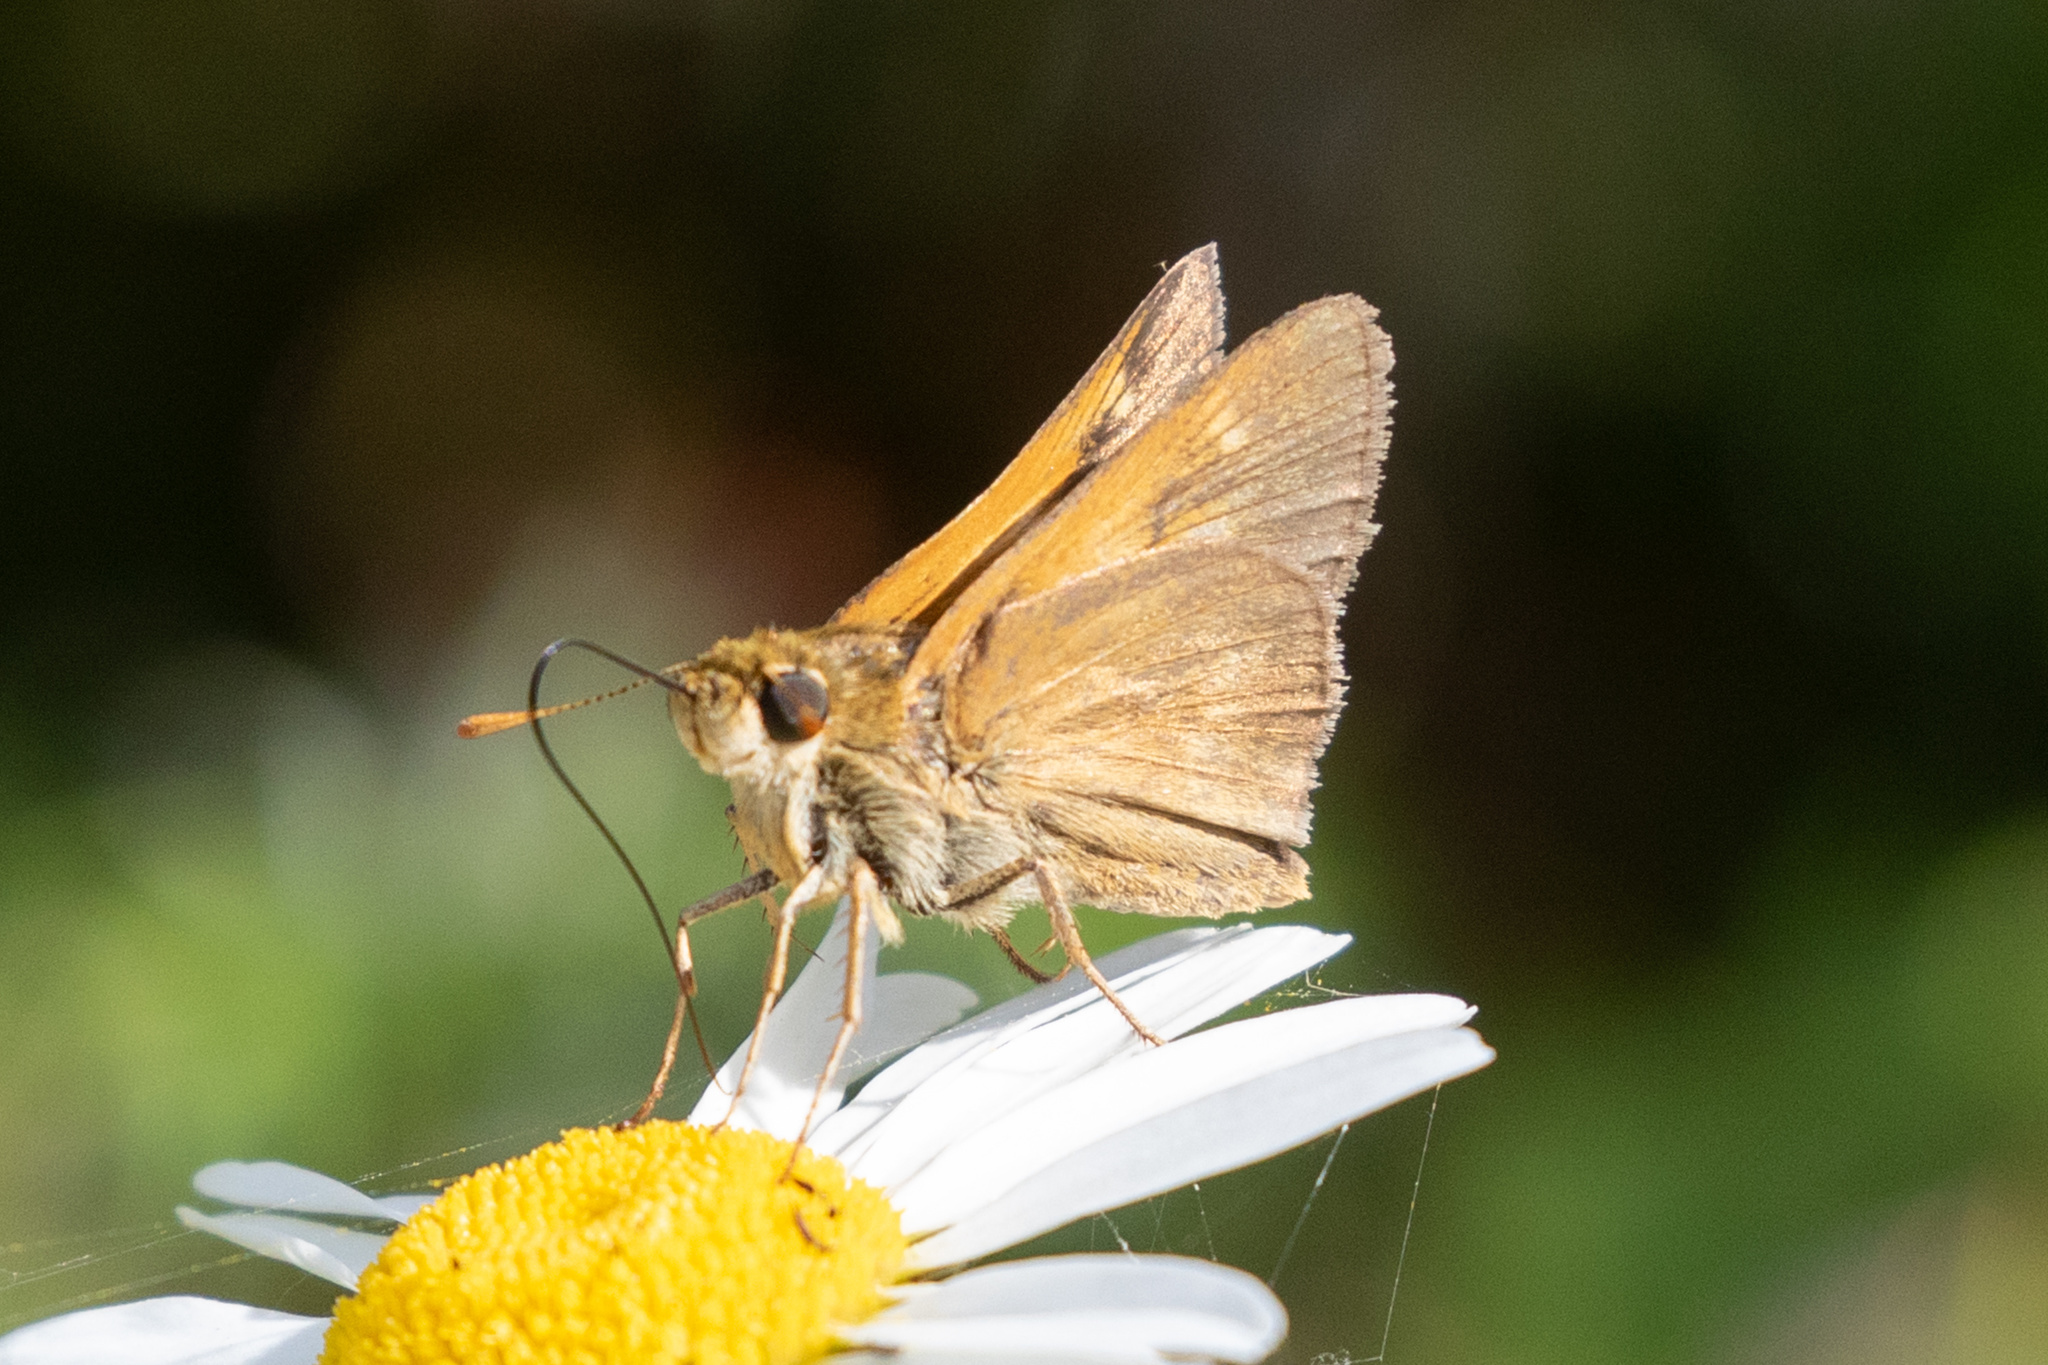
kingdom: Animalia
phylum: Arthropoda
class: Insecta
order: Lepidoptera
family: Hesperiidae
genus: Polites
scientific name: Polites themistocles
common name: Tawny-edged skipper
